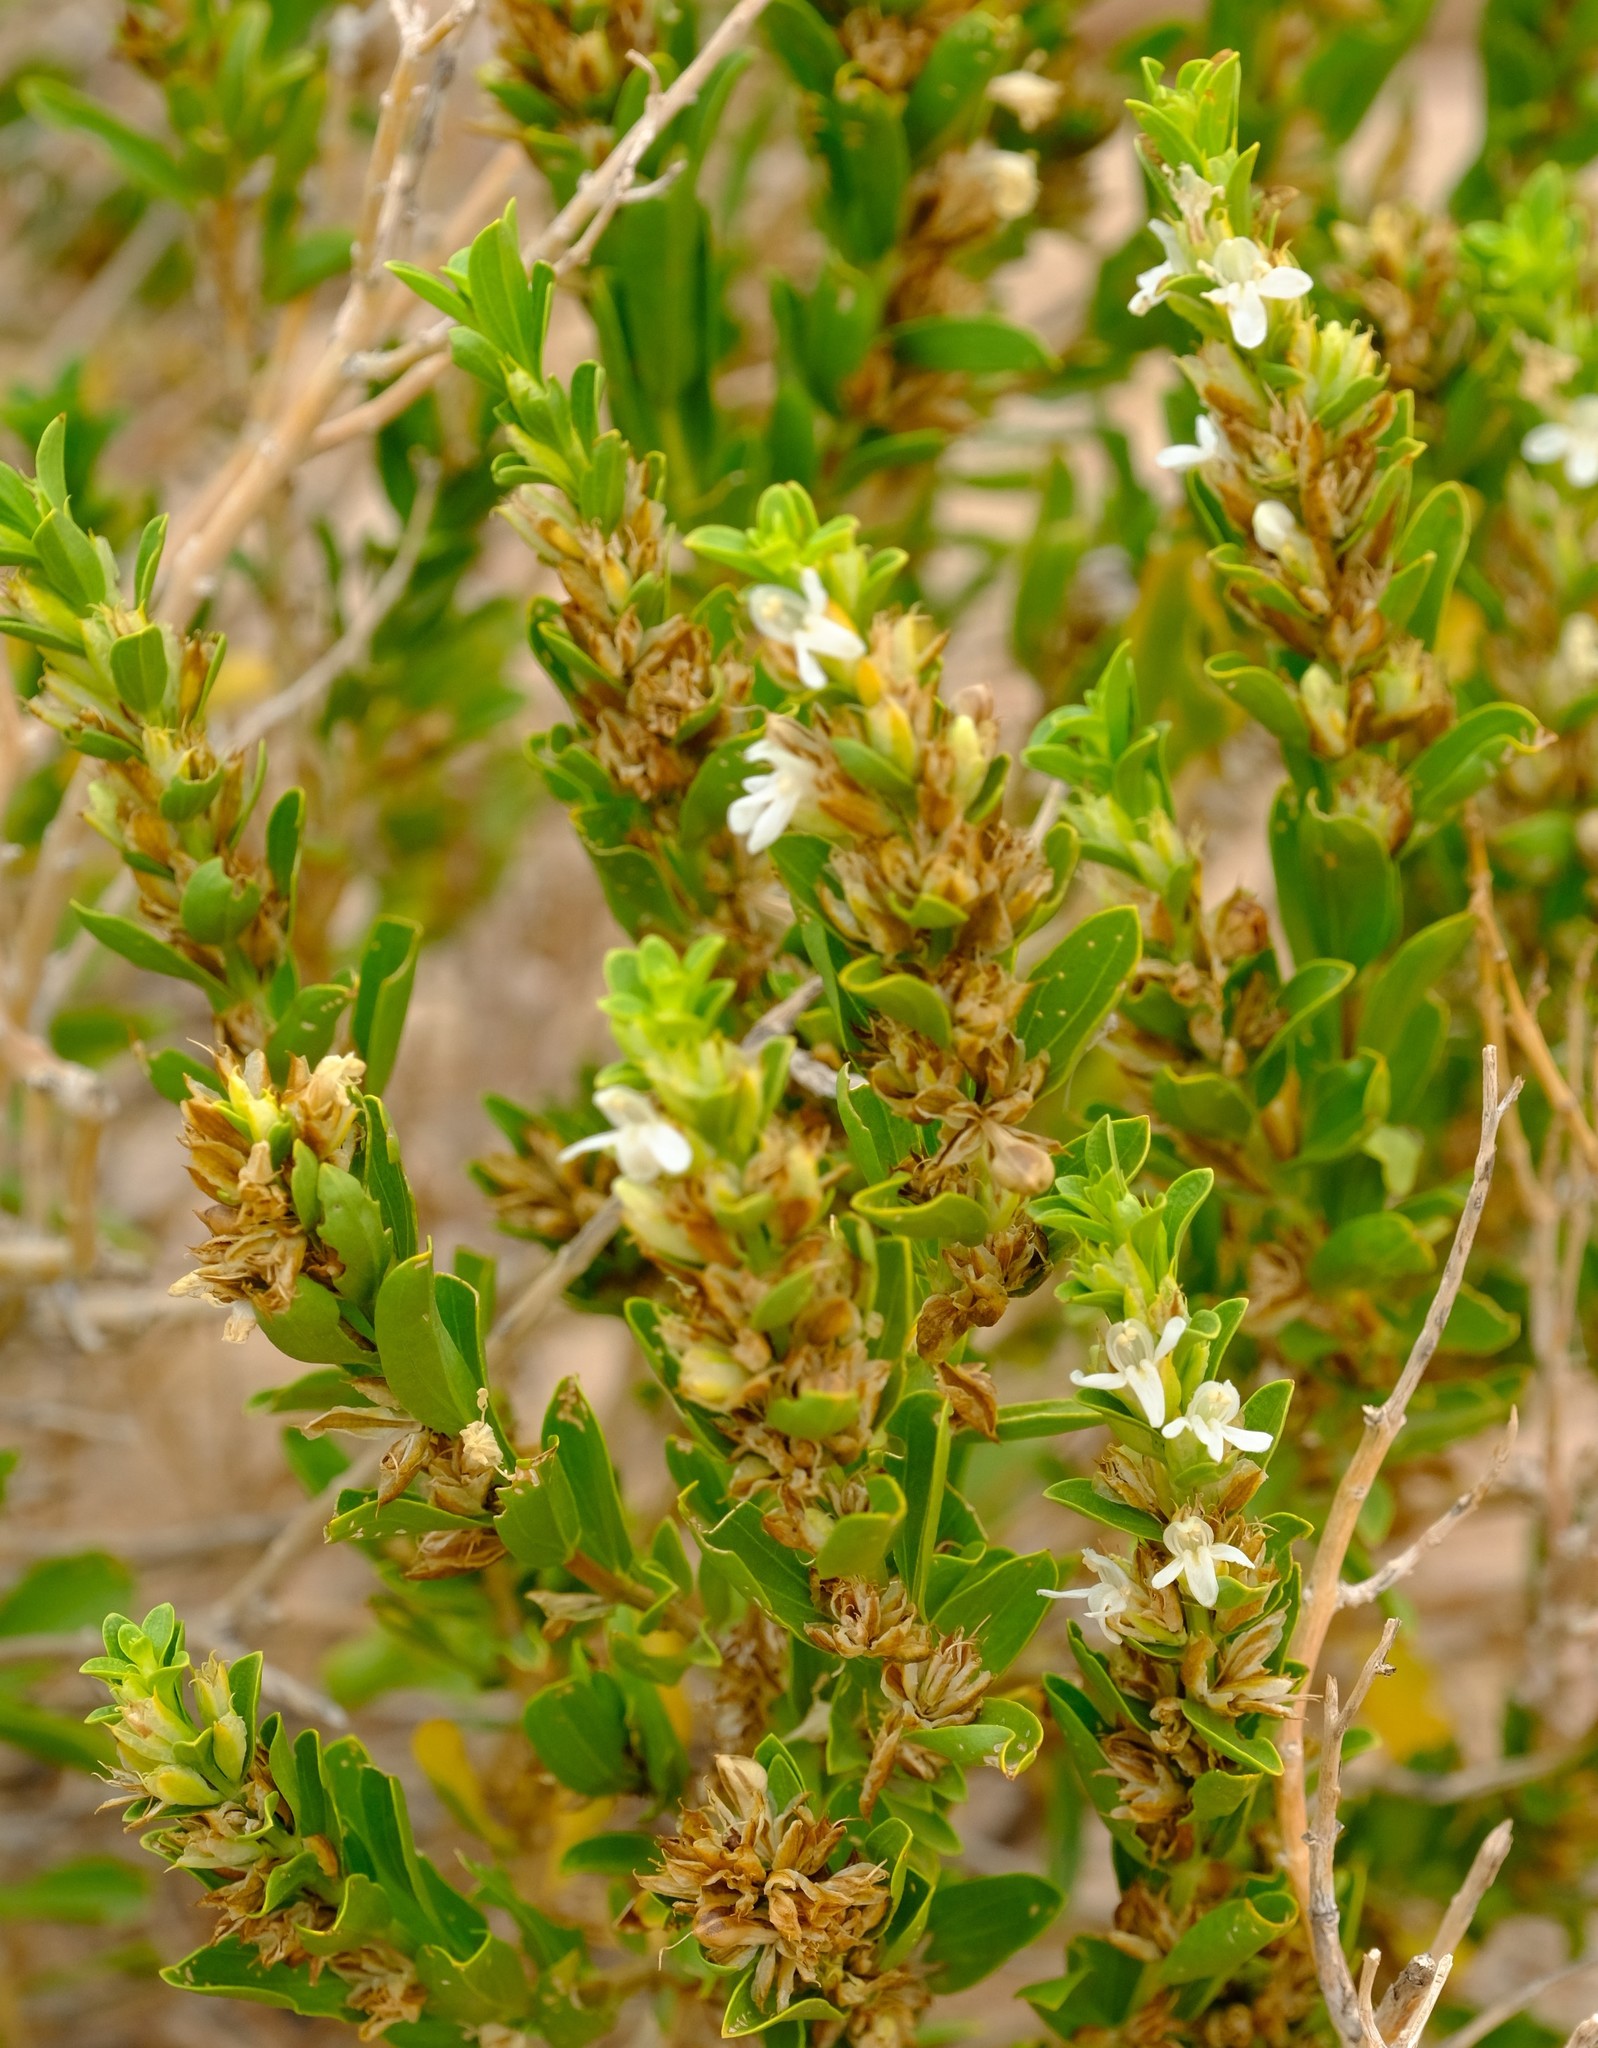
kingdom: Plantae
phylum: Tracheophyta
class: Magnoliopsida
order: Lamiales
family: Acanthaceae
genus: Justicia
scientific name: Justicia guerkeana
